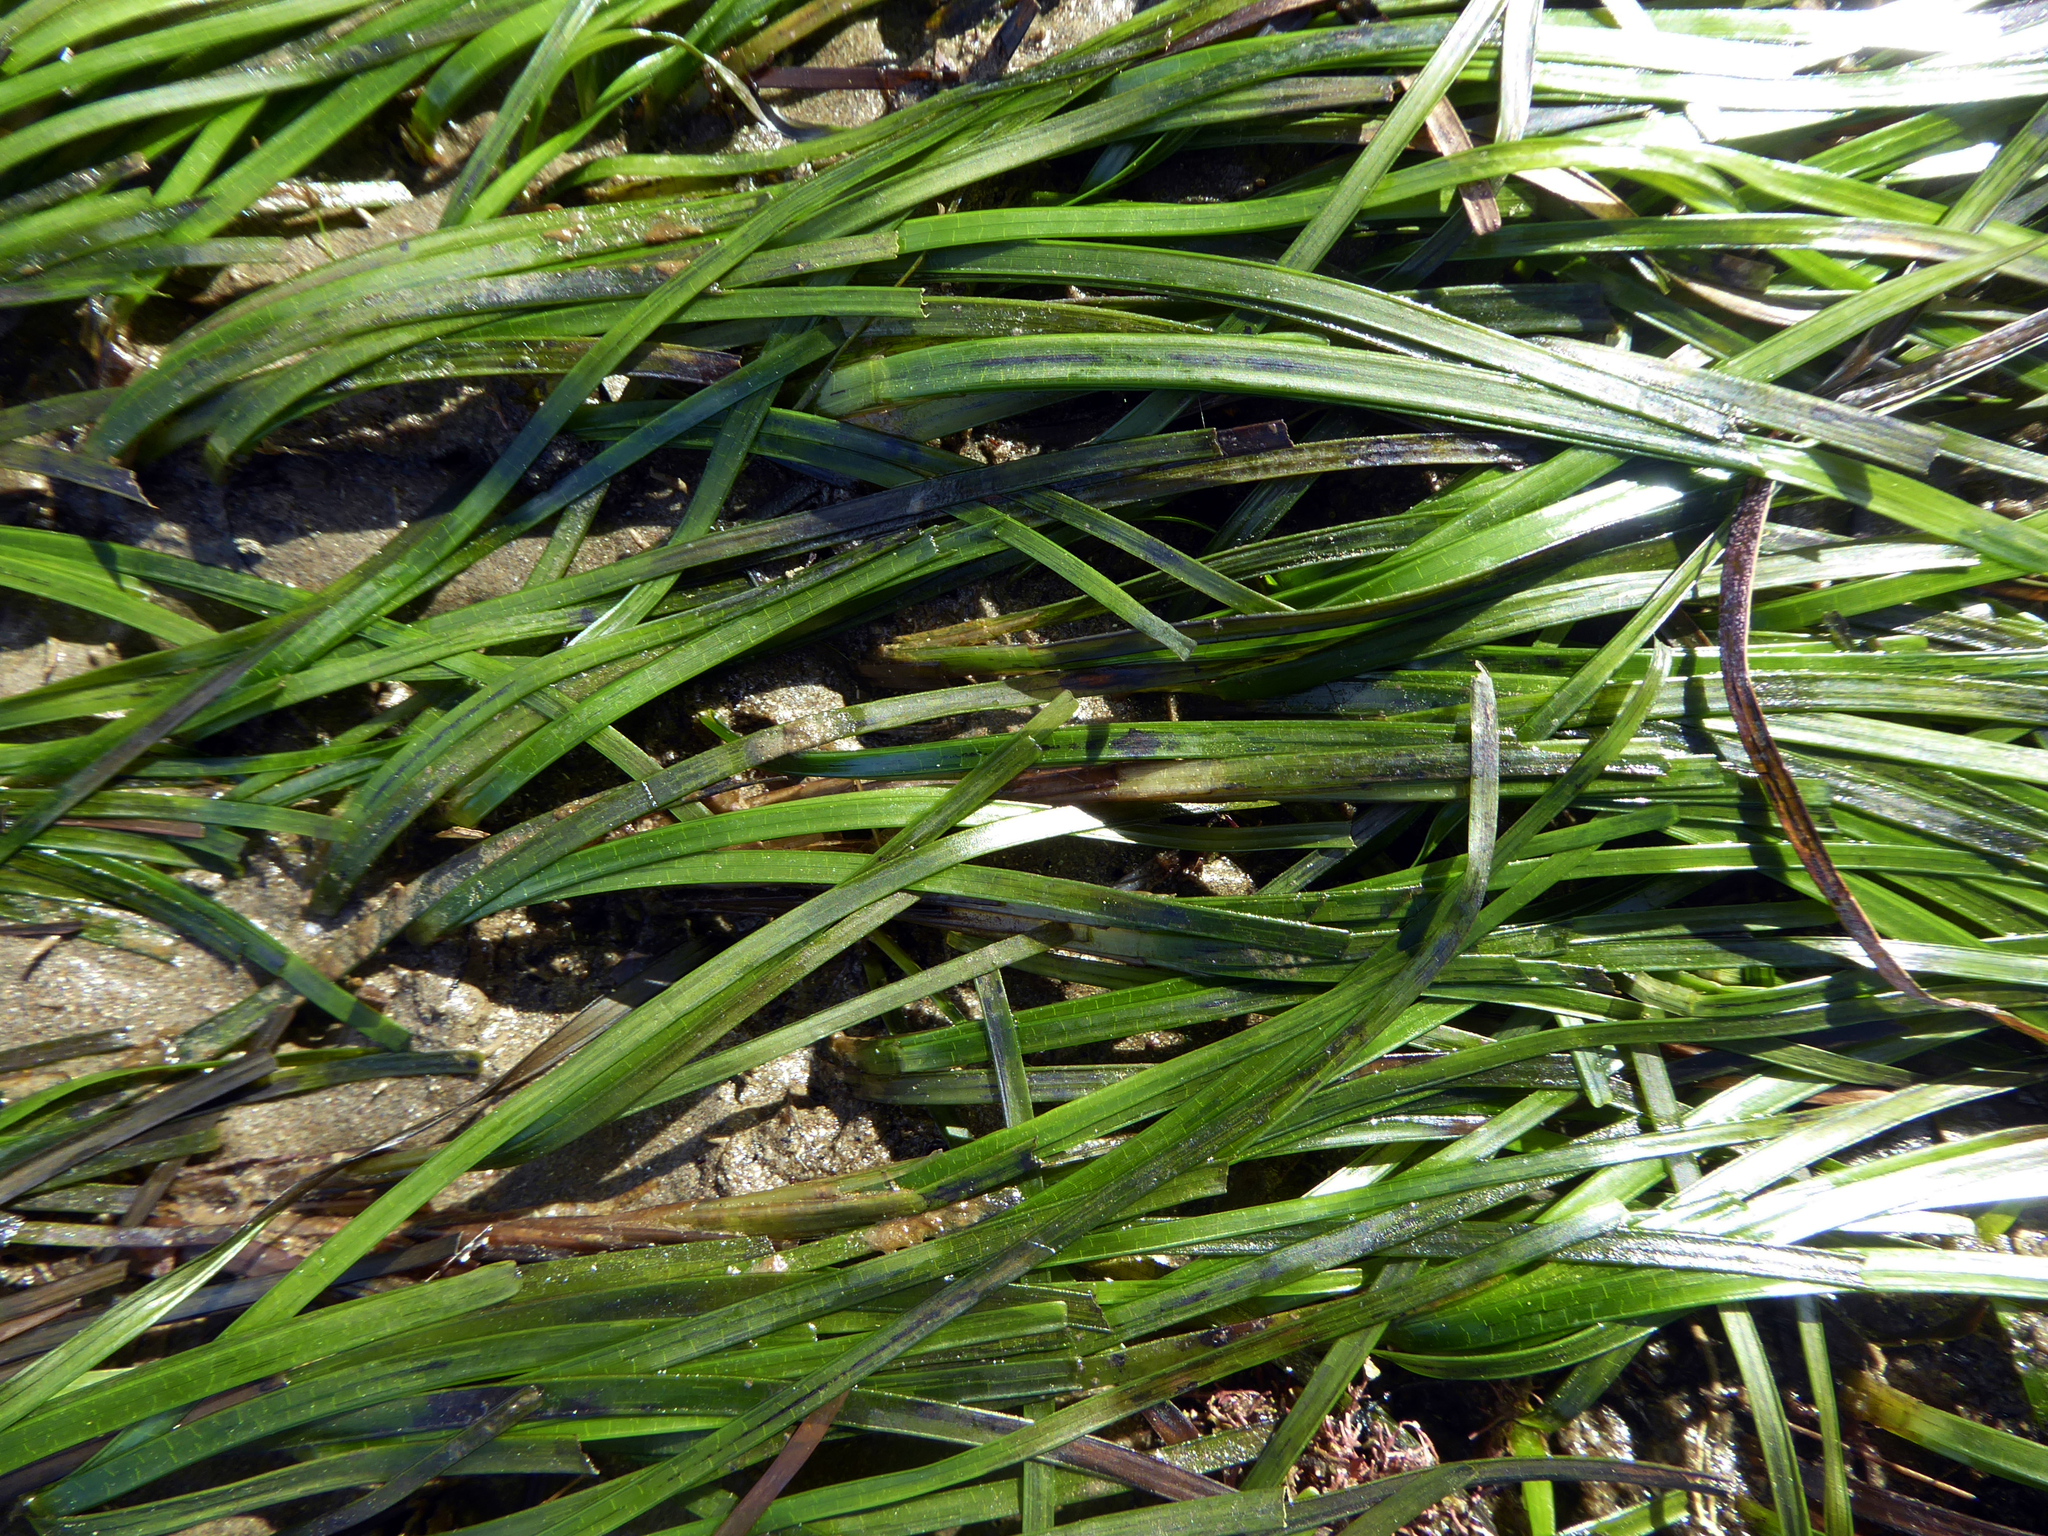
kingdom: Plantae
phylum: Tracheophyta
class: Liliopsida
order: Alismatales
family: Zosteraceae
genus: Zostera
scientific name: Zostera novazelandica
